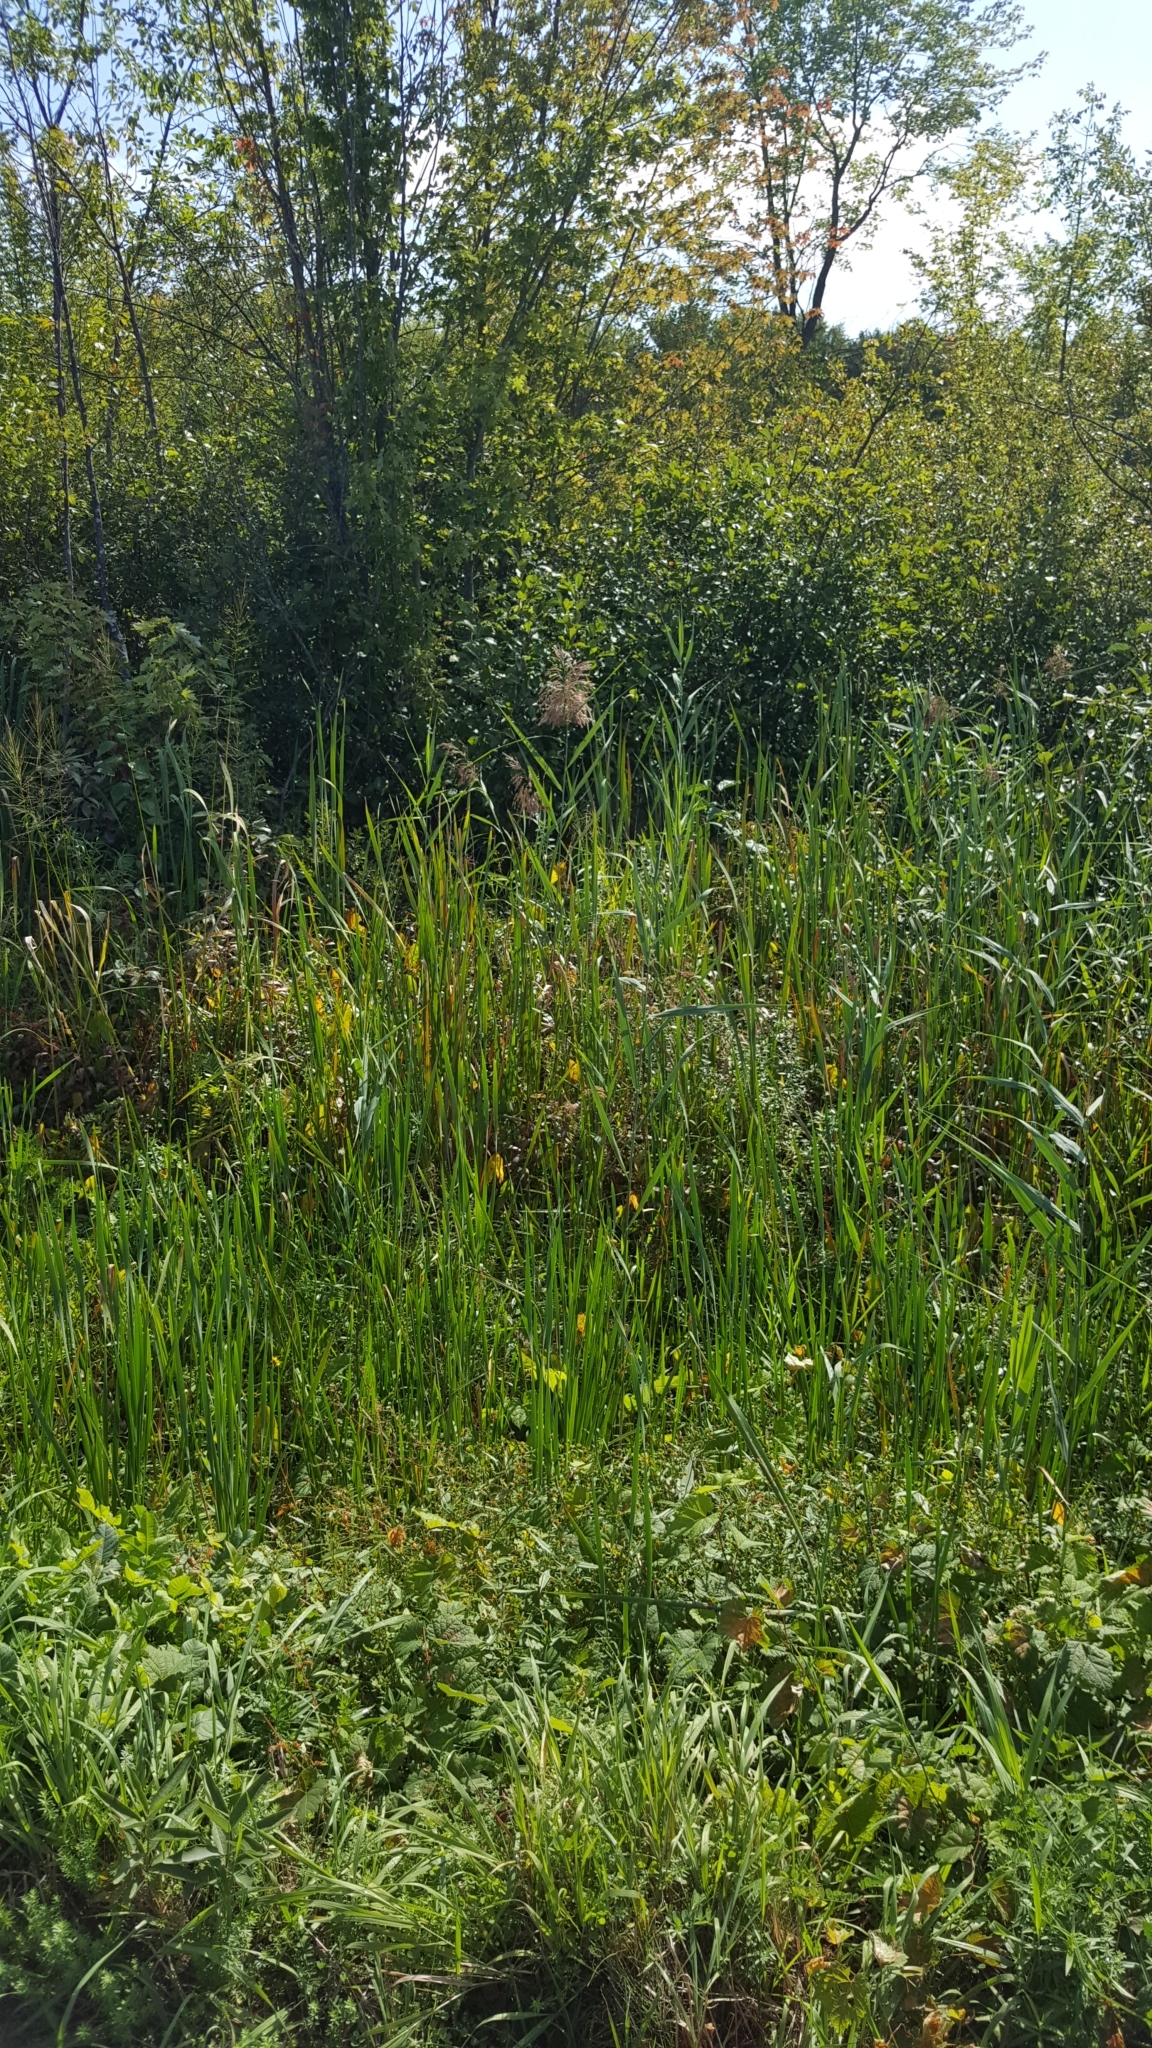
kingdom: Plantae
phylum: Tracheophyta
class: Liliopsida
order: Poales
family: Poaceae
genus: Phragmites
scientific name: Phragmites australis
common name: Common reed
